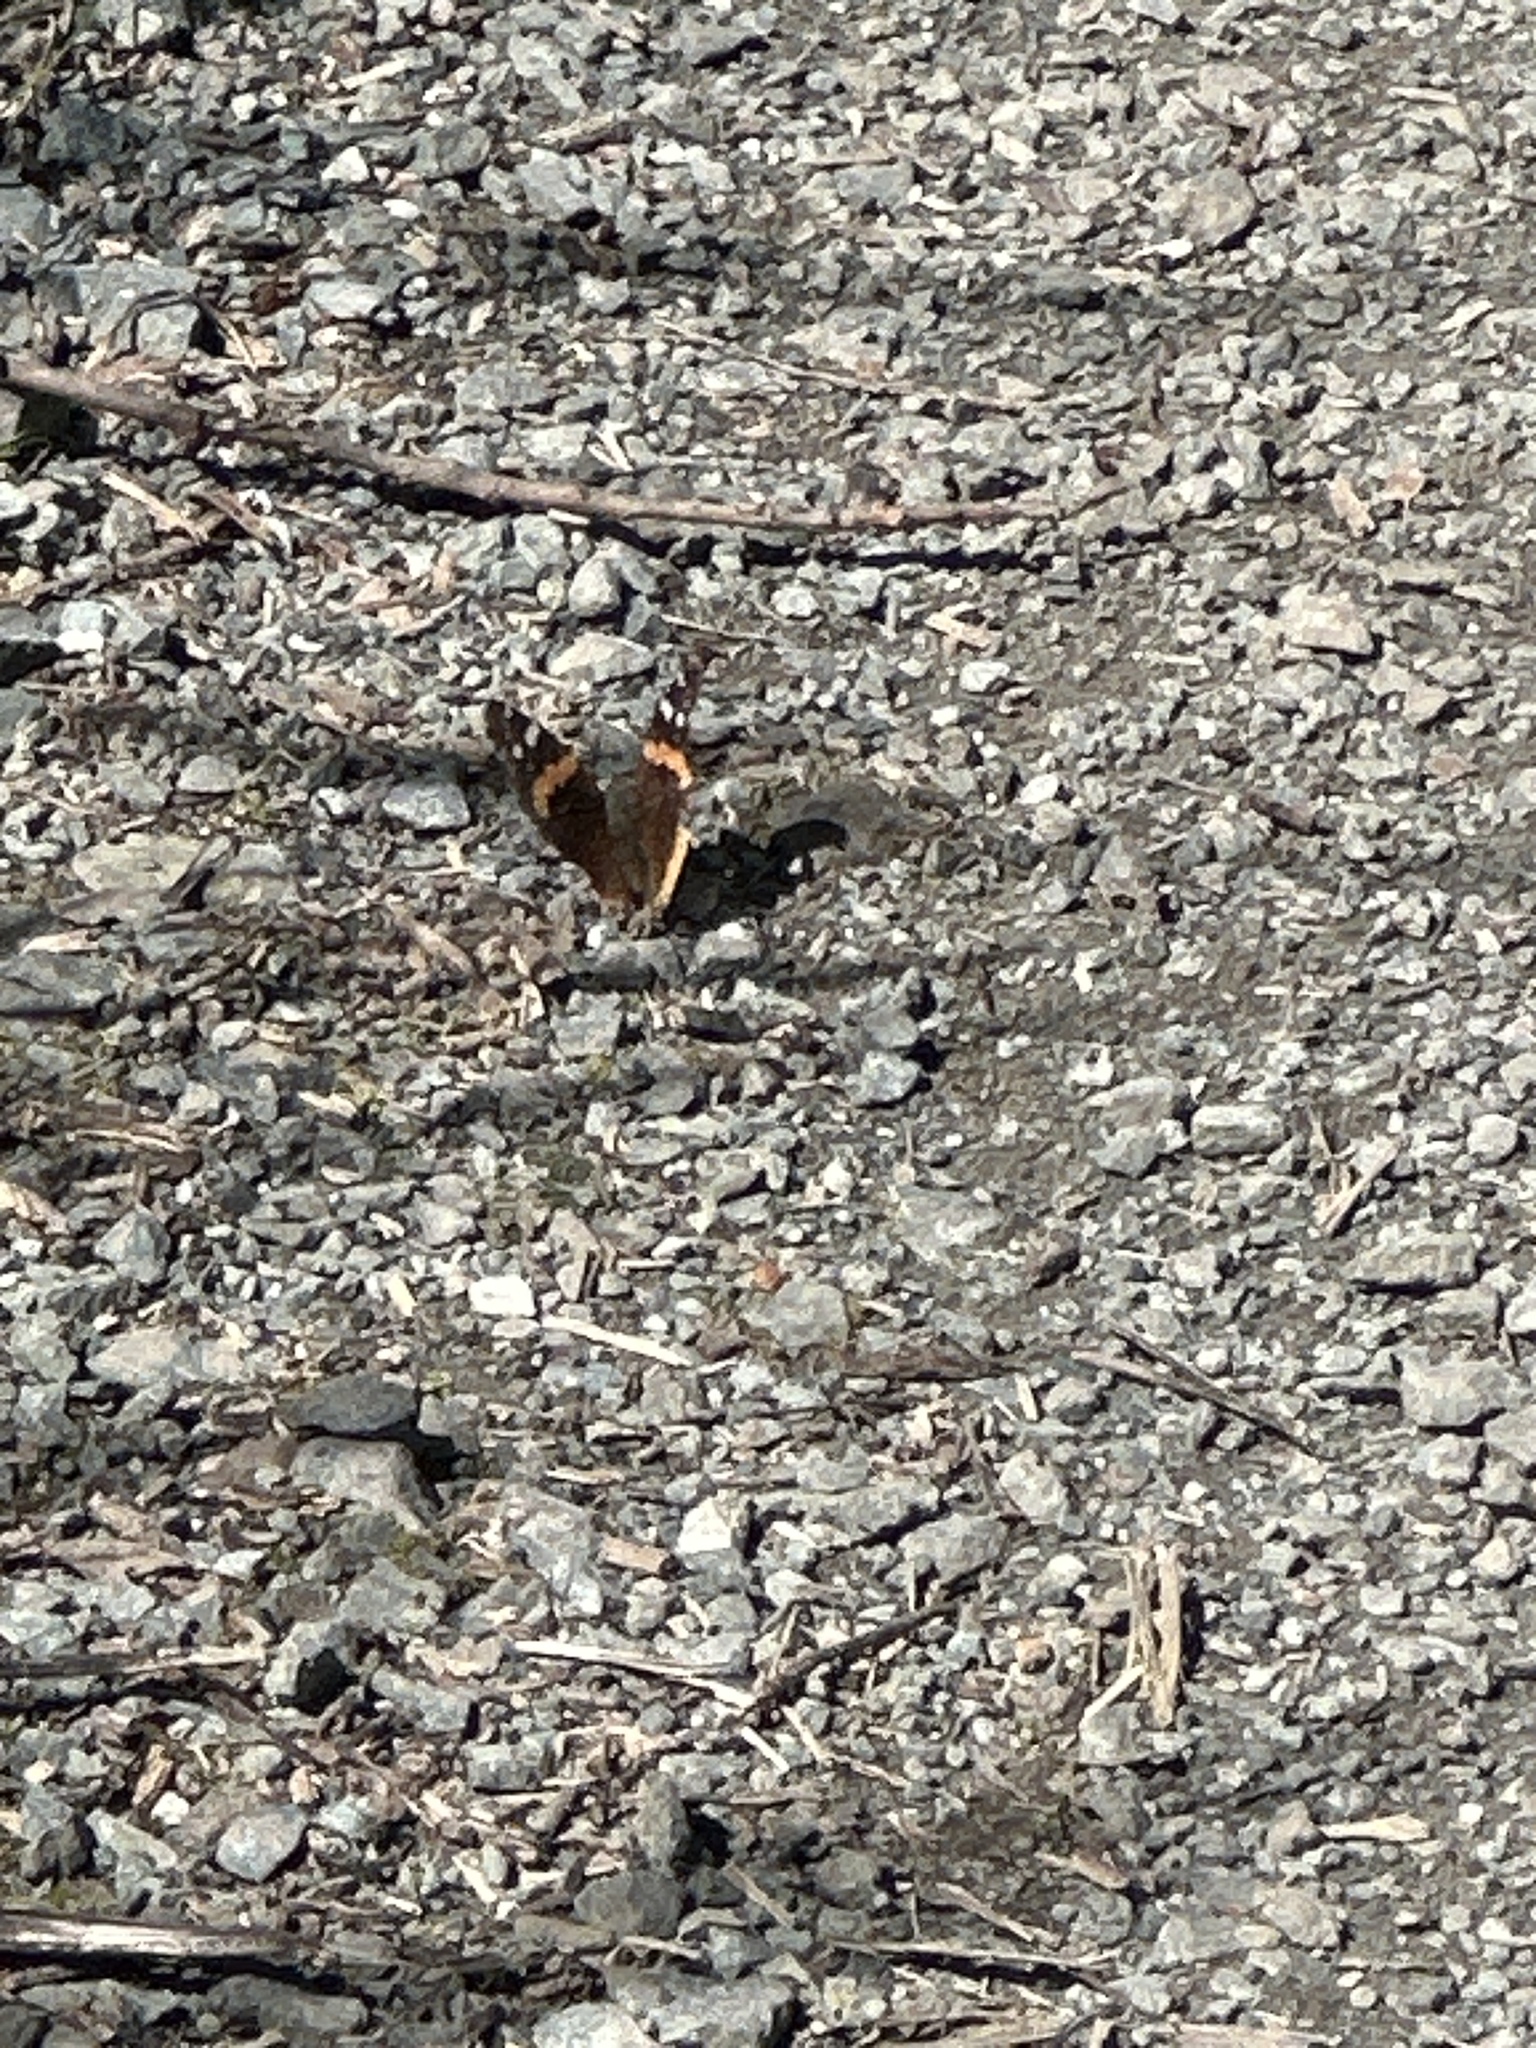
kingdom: Animalia
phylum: Arthropoda
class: Insecta
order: Lepidoptera
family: Nymphalidae
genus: Vanessa
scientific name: Vanessa atalanta
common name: Red admiral
